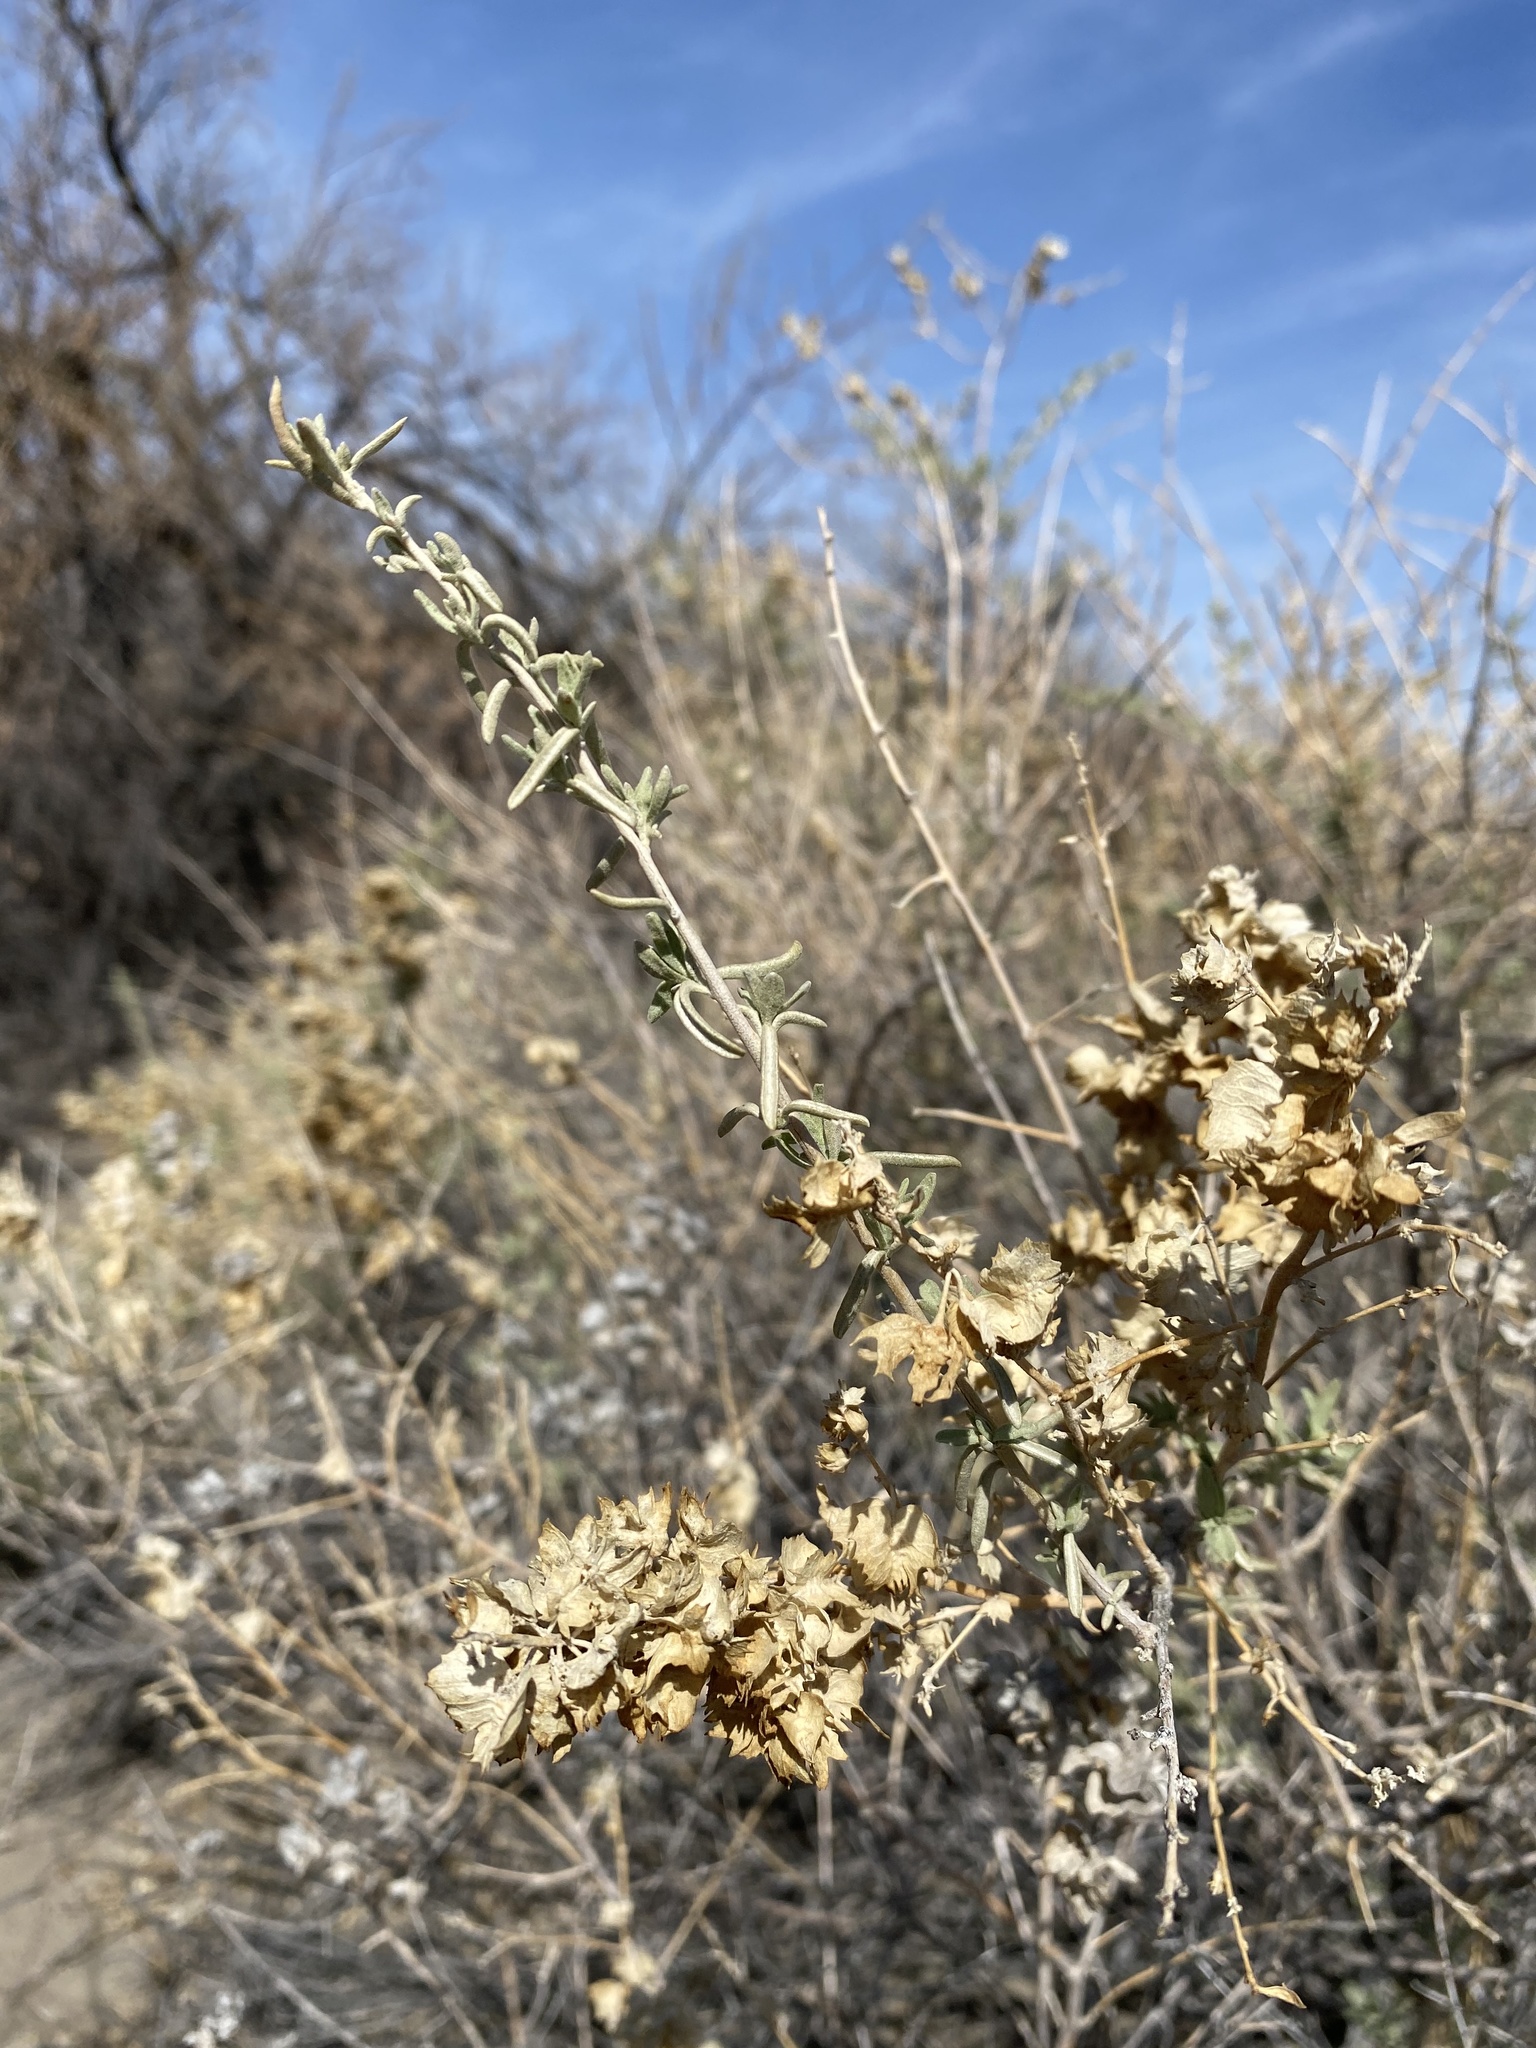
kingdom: Plantae
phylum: Tracheophyta
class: Magnoliopsida
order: Caryophyllales
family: Amaranthaceae
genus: Atriplex
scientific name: Atriplex canescens
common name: Four-wing saltbush
